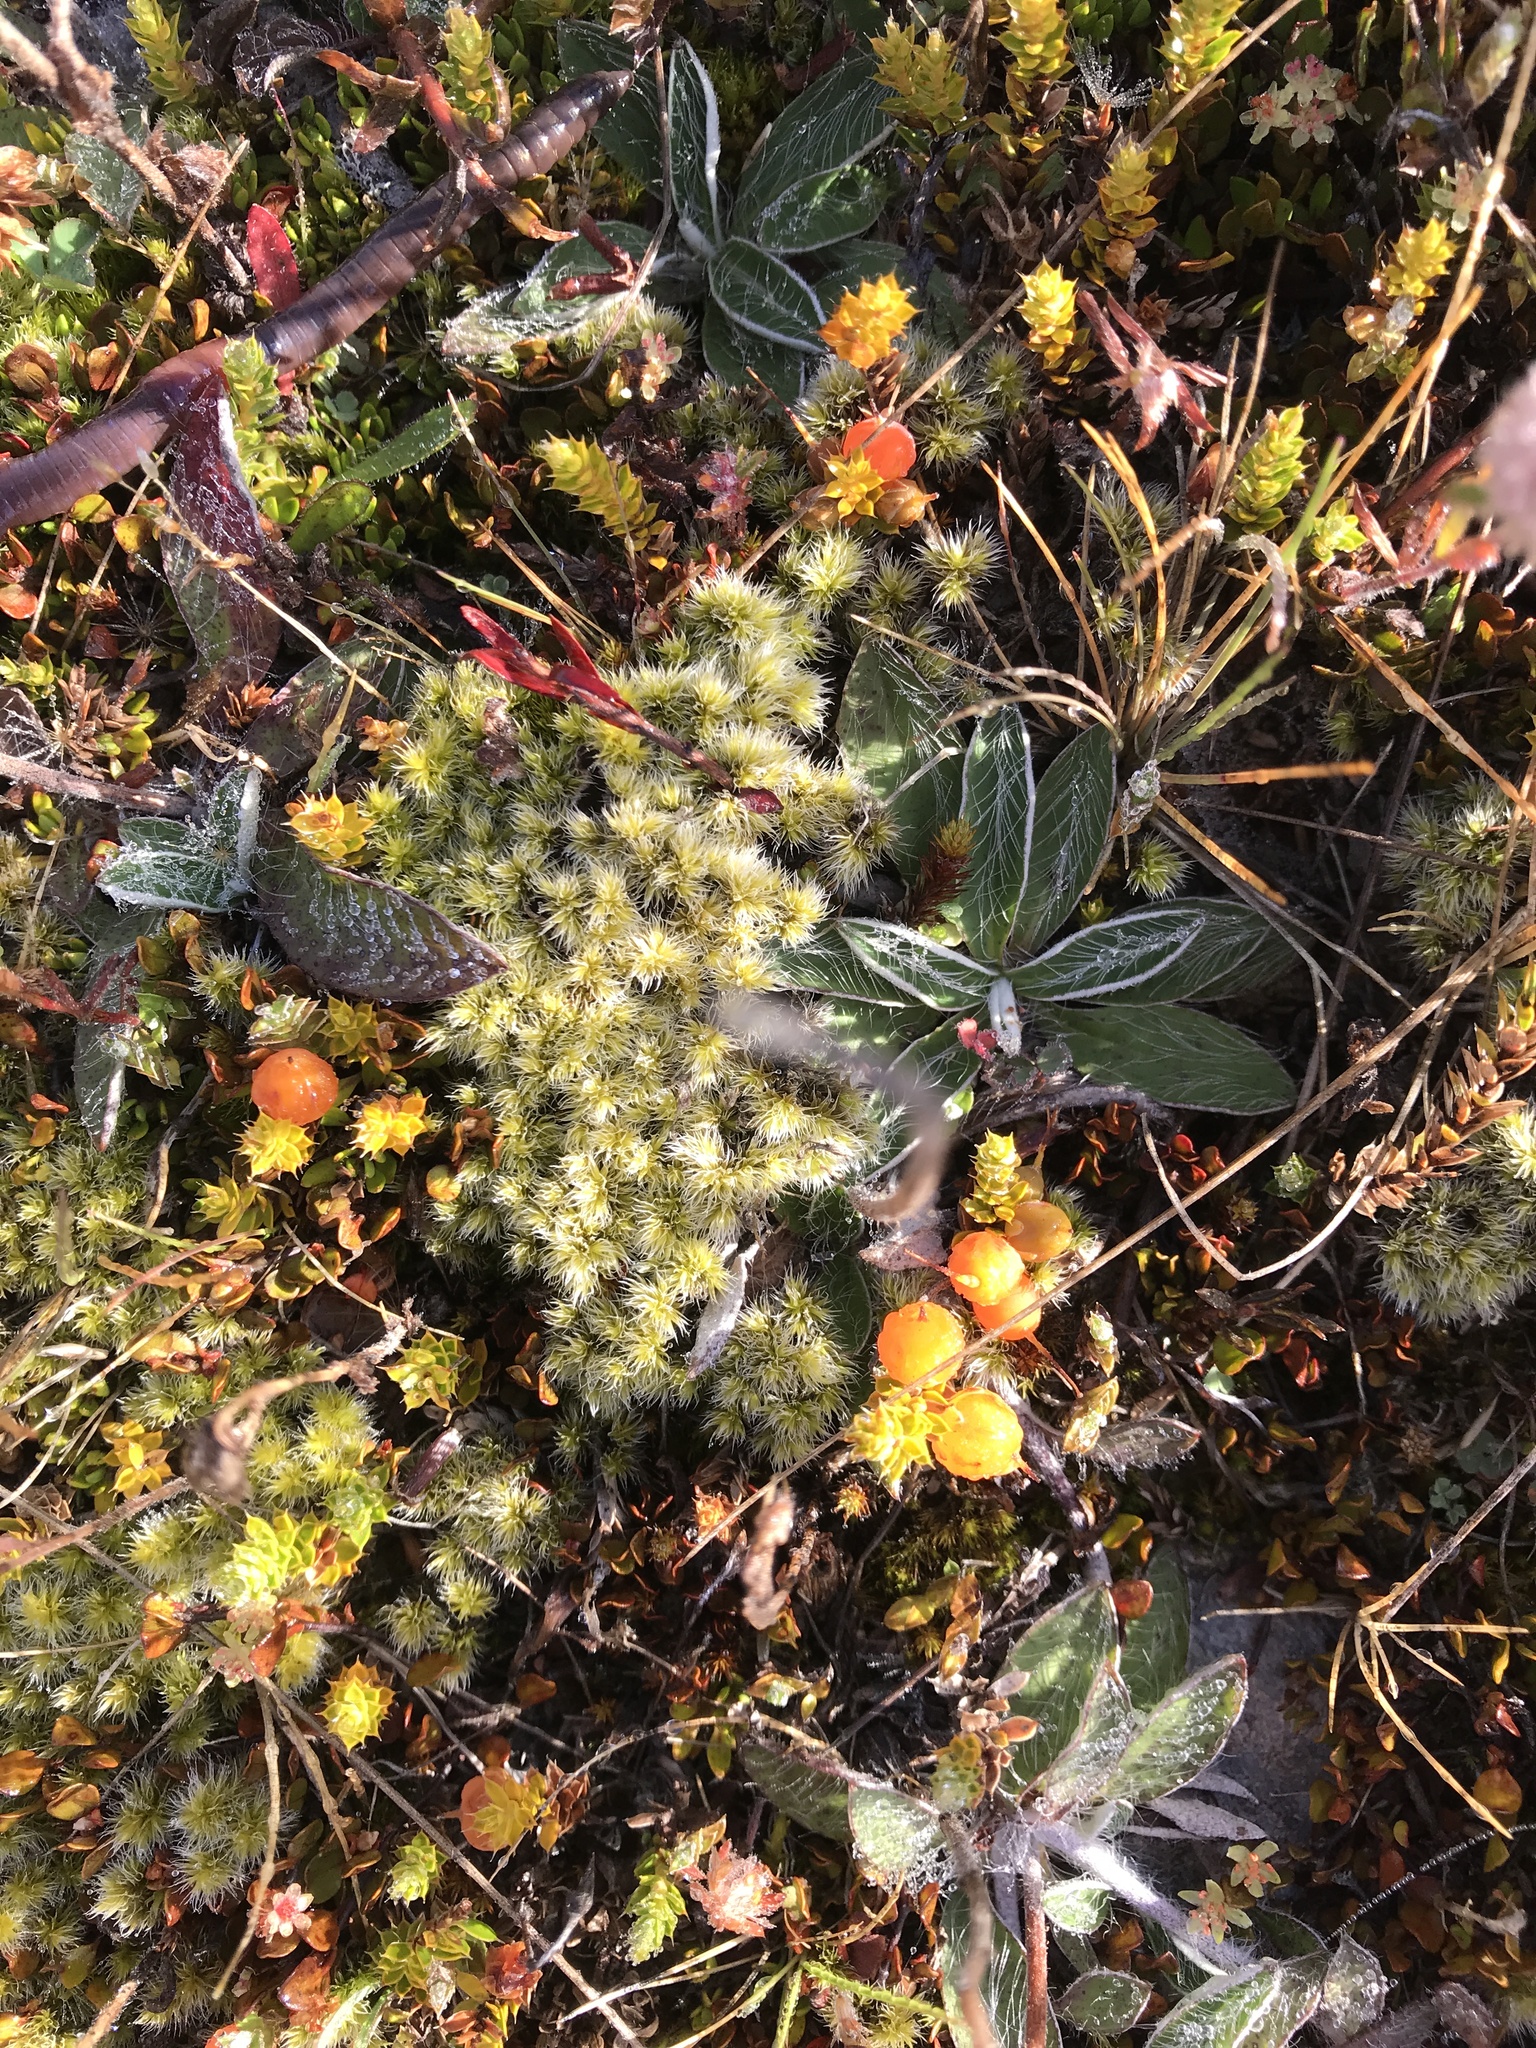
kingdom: Plantae
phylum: Tracheophyta
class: Magnoliopsida
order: Ericales
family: Ericaceae
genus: Styphelia
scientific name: Styphelia nesophila
